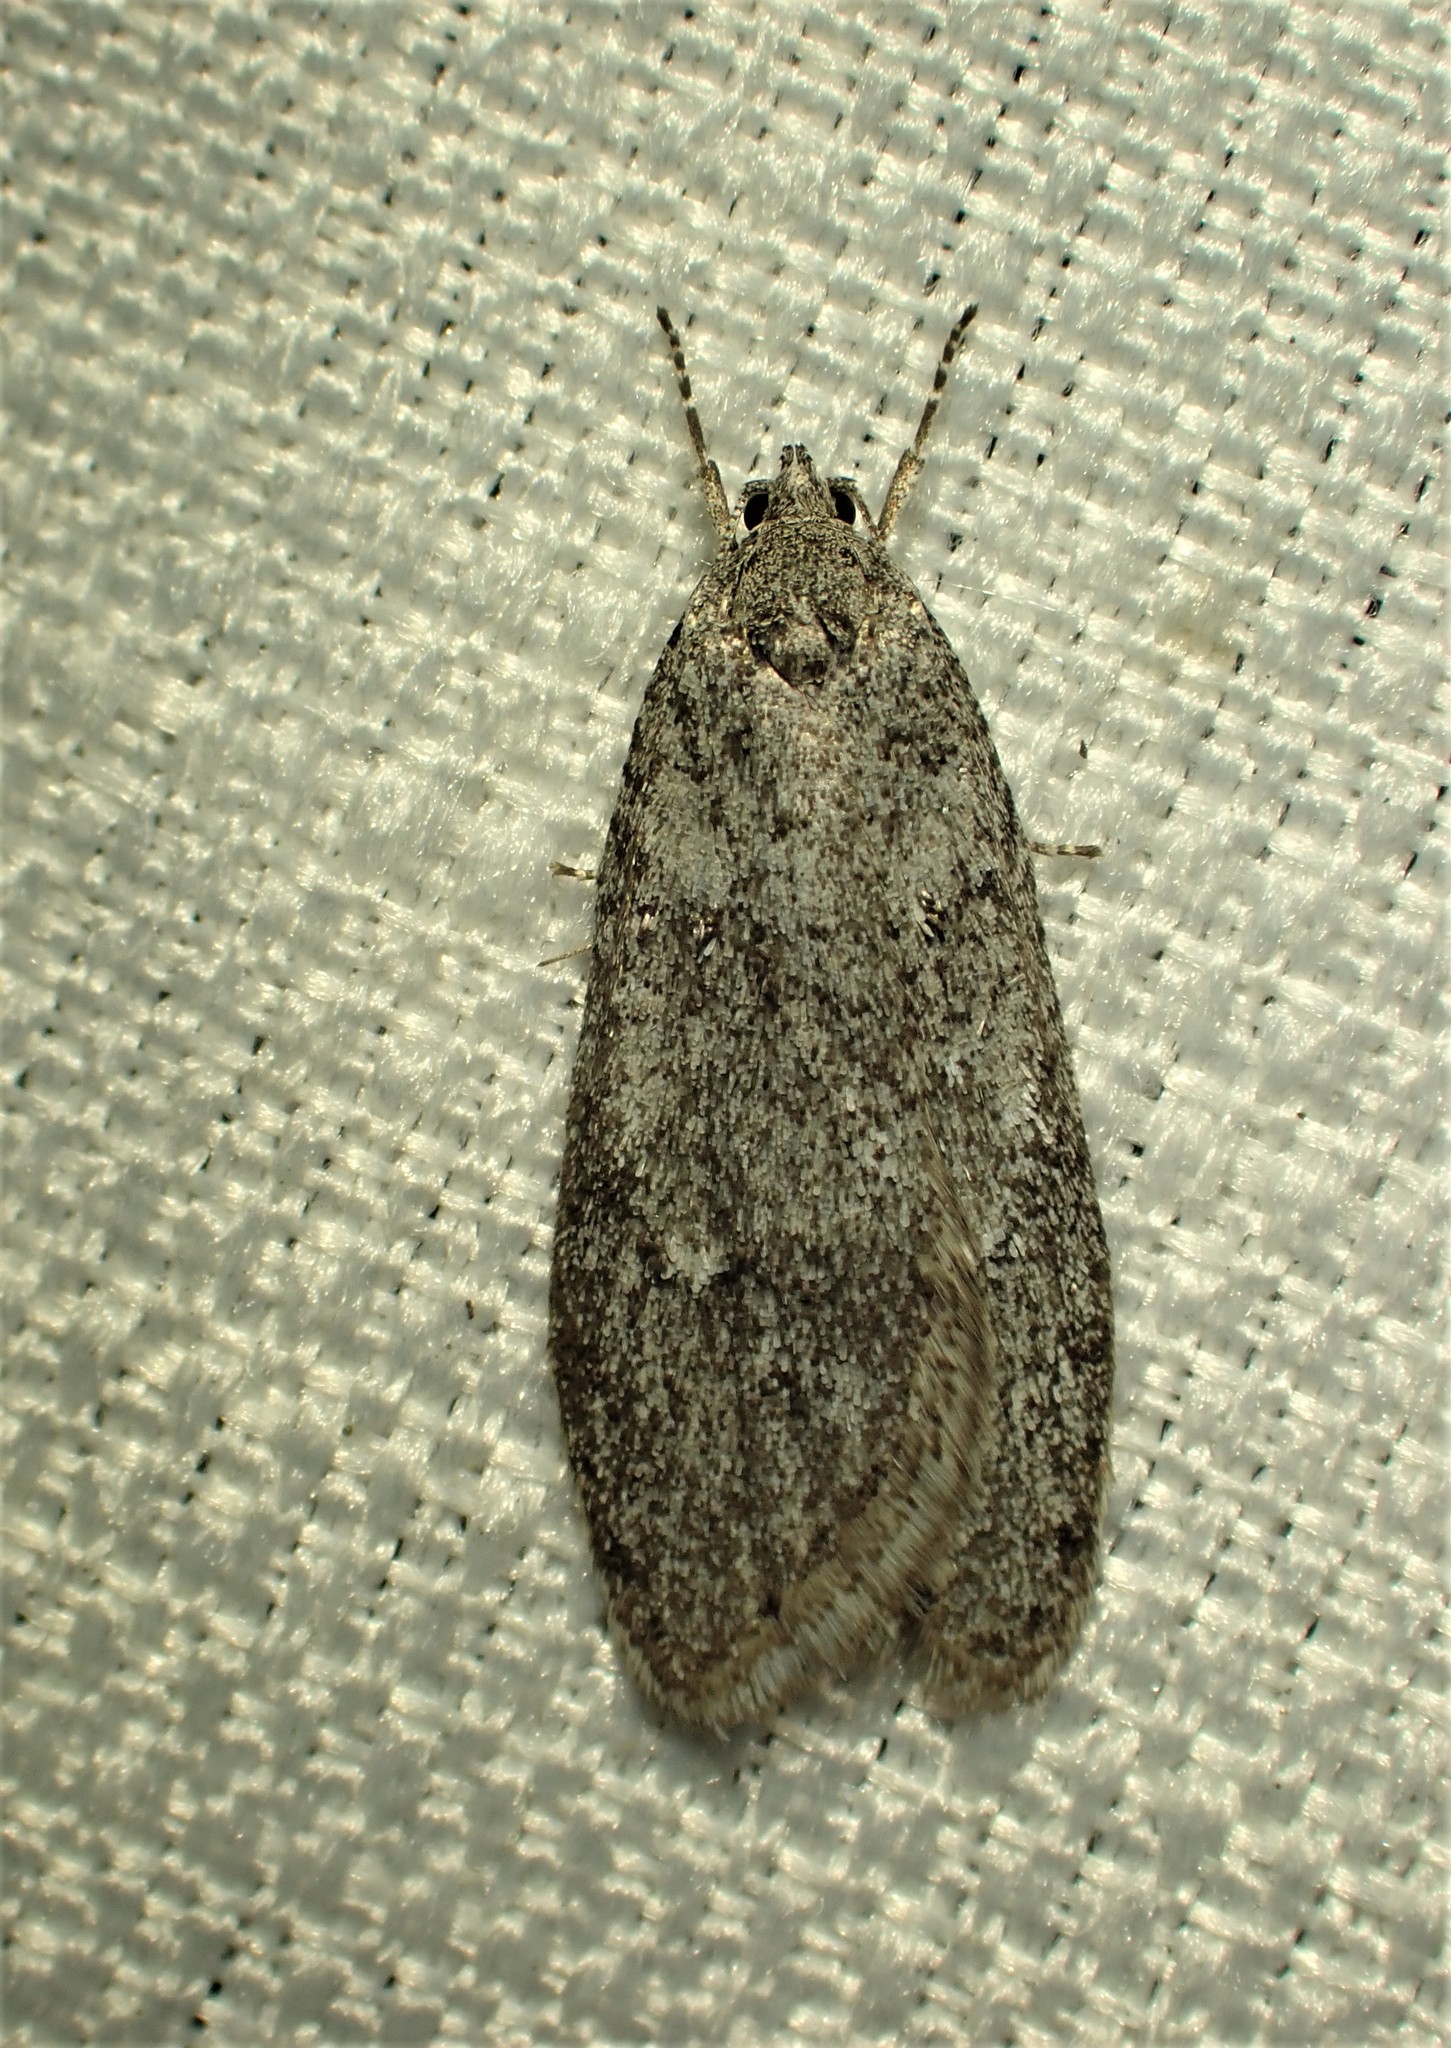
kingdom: Animalia
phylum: Arthropoda
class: Insecta
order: Lepidoptera
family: Depressariidae
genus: Semioscopis
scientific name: Semioscopis inornata
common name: Poplar micromoth
